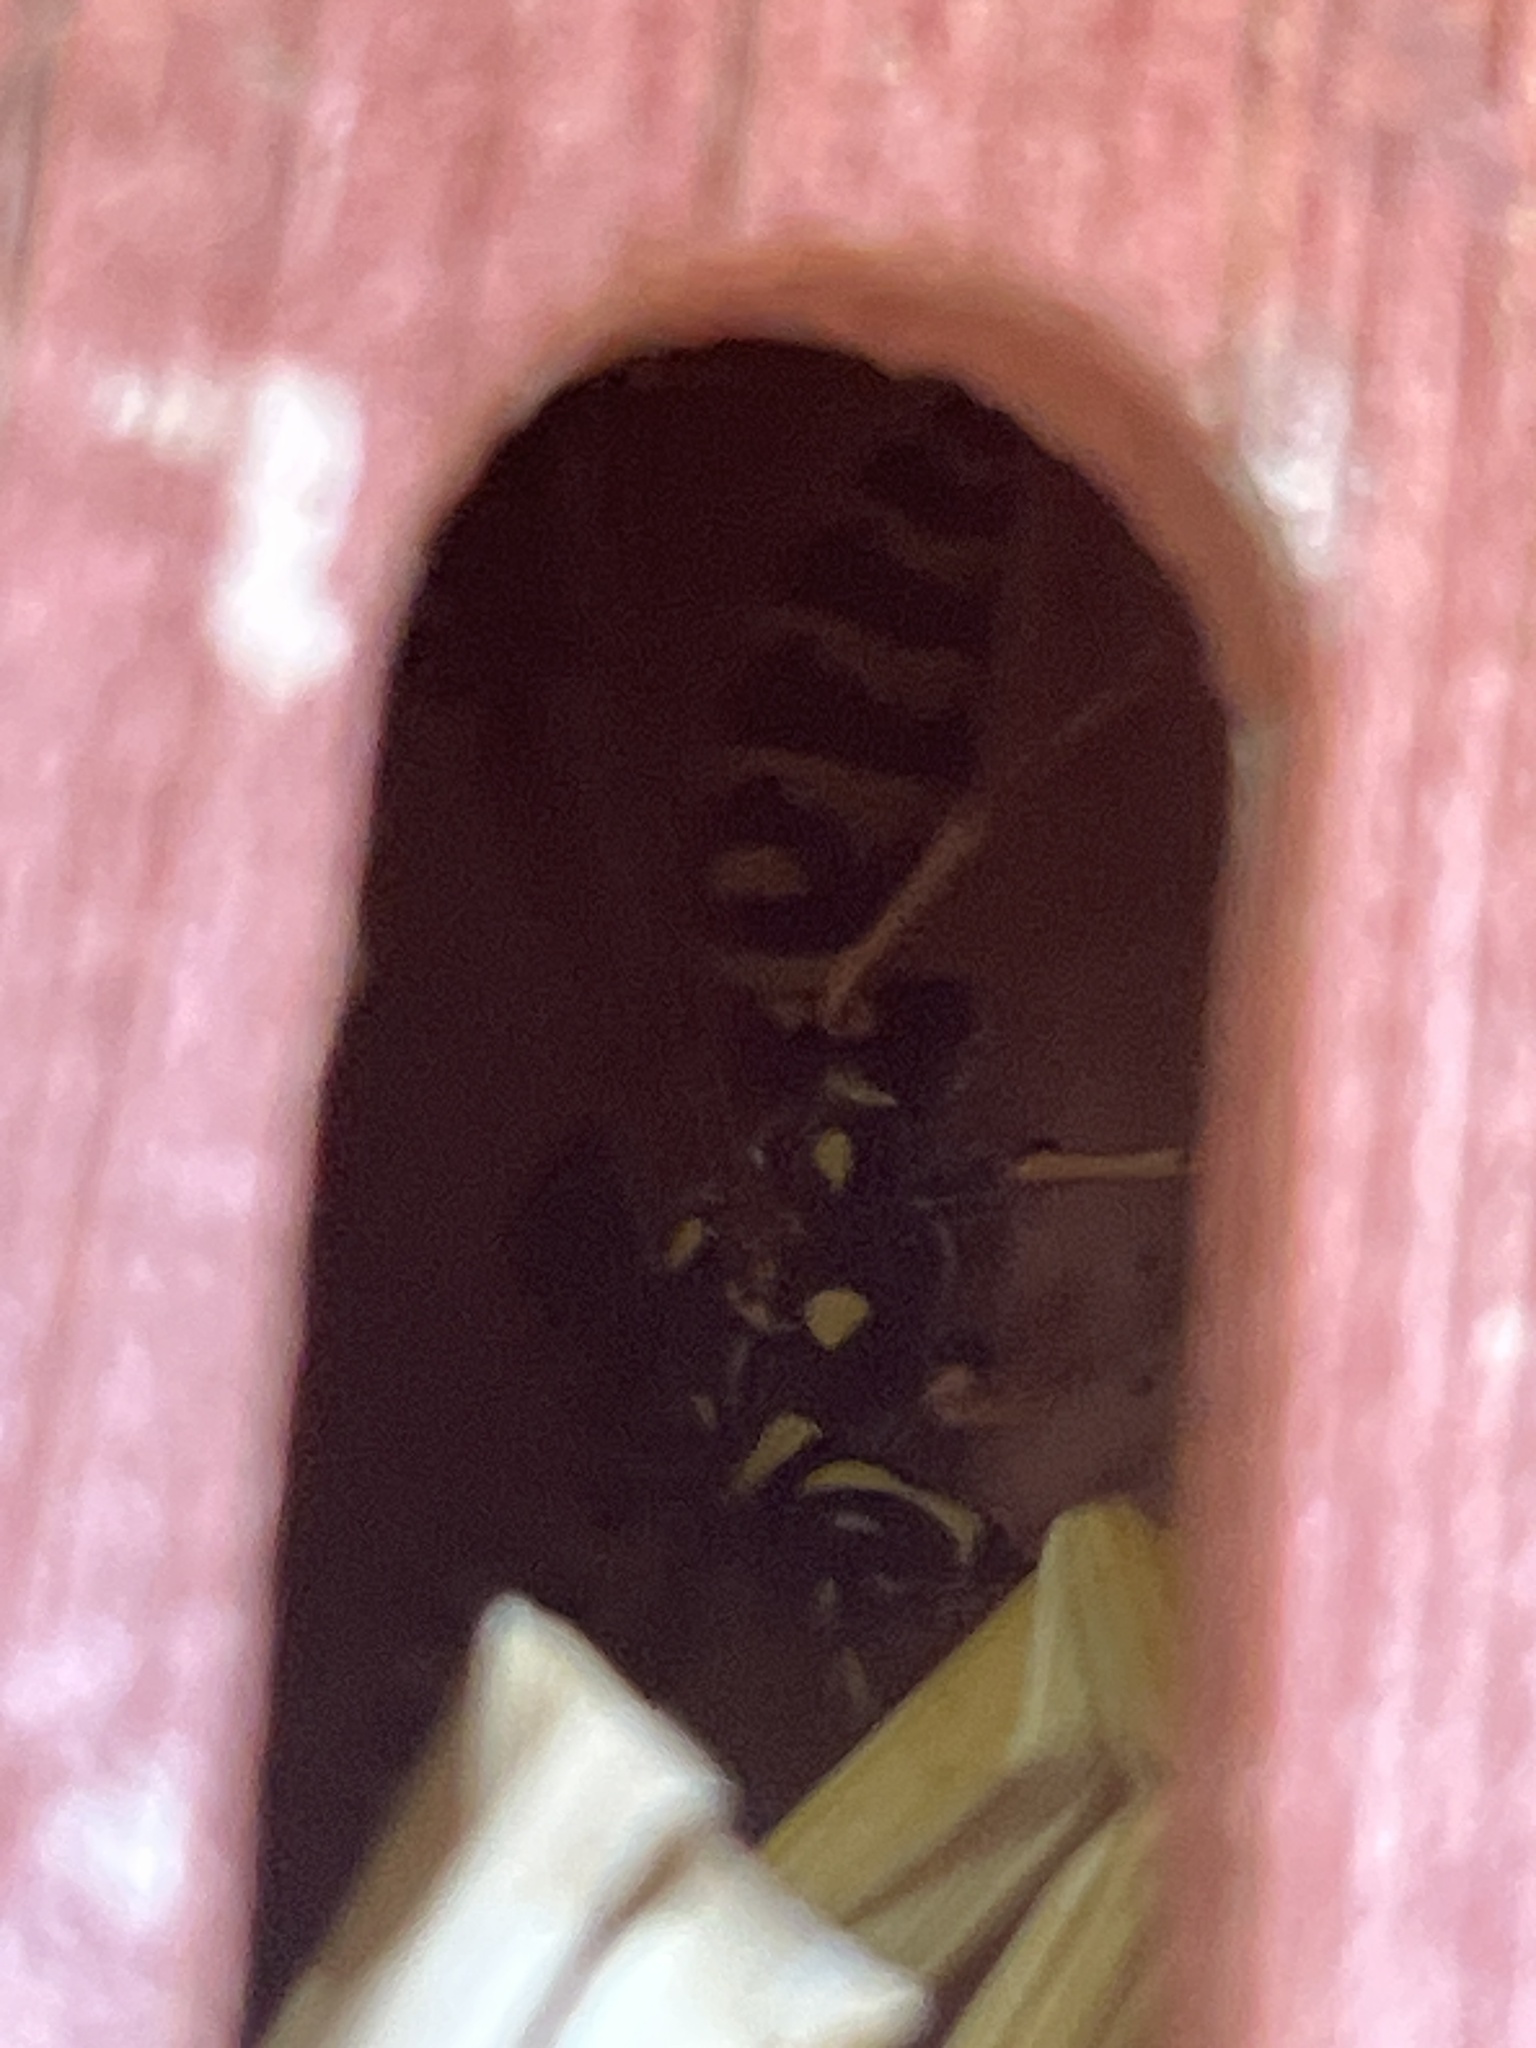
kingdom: Animalia
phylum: Arthropoda
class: Insecta
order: Hymenoptera
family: Eumenidae
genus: Polistes
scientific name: Polistes dominula
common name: Paper wasp
